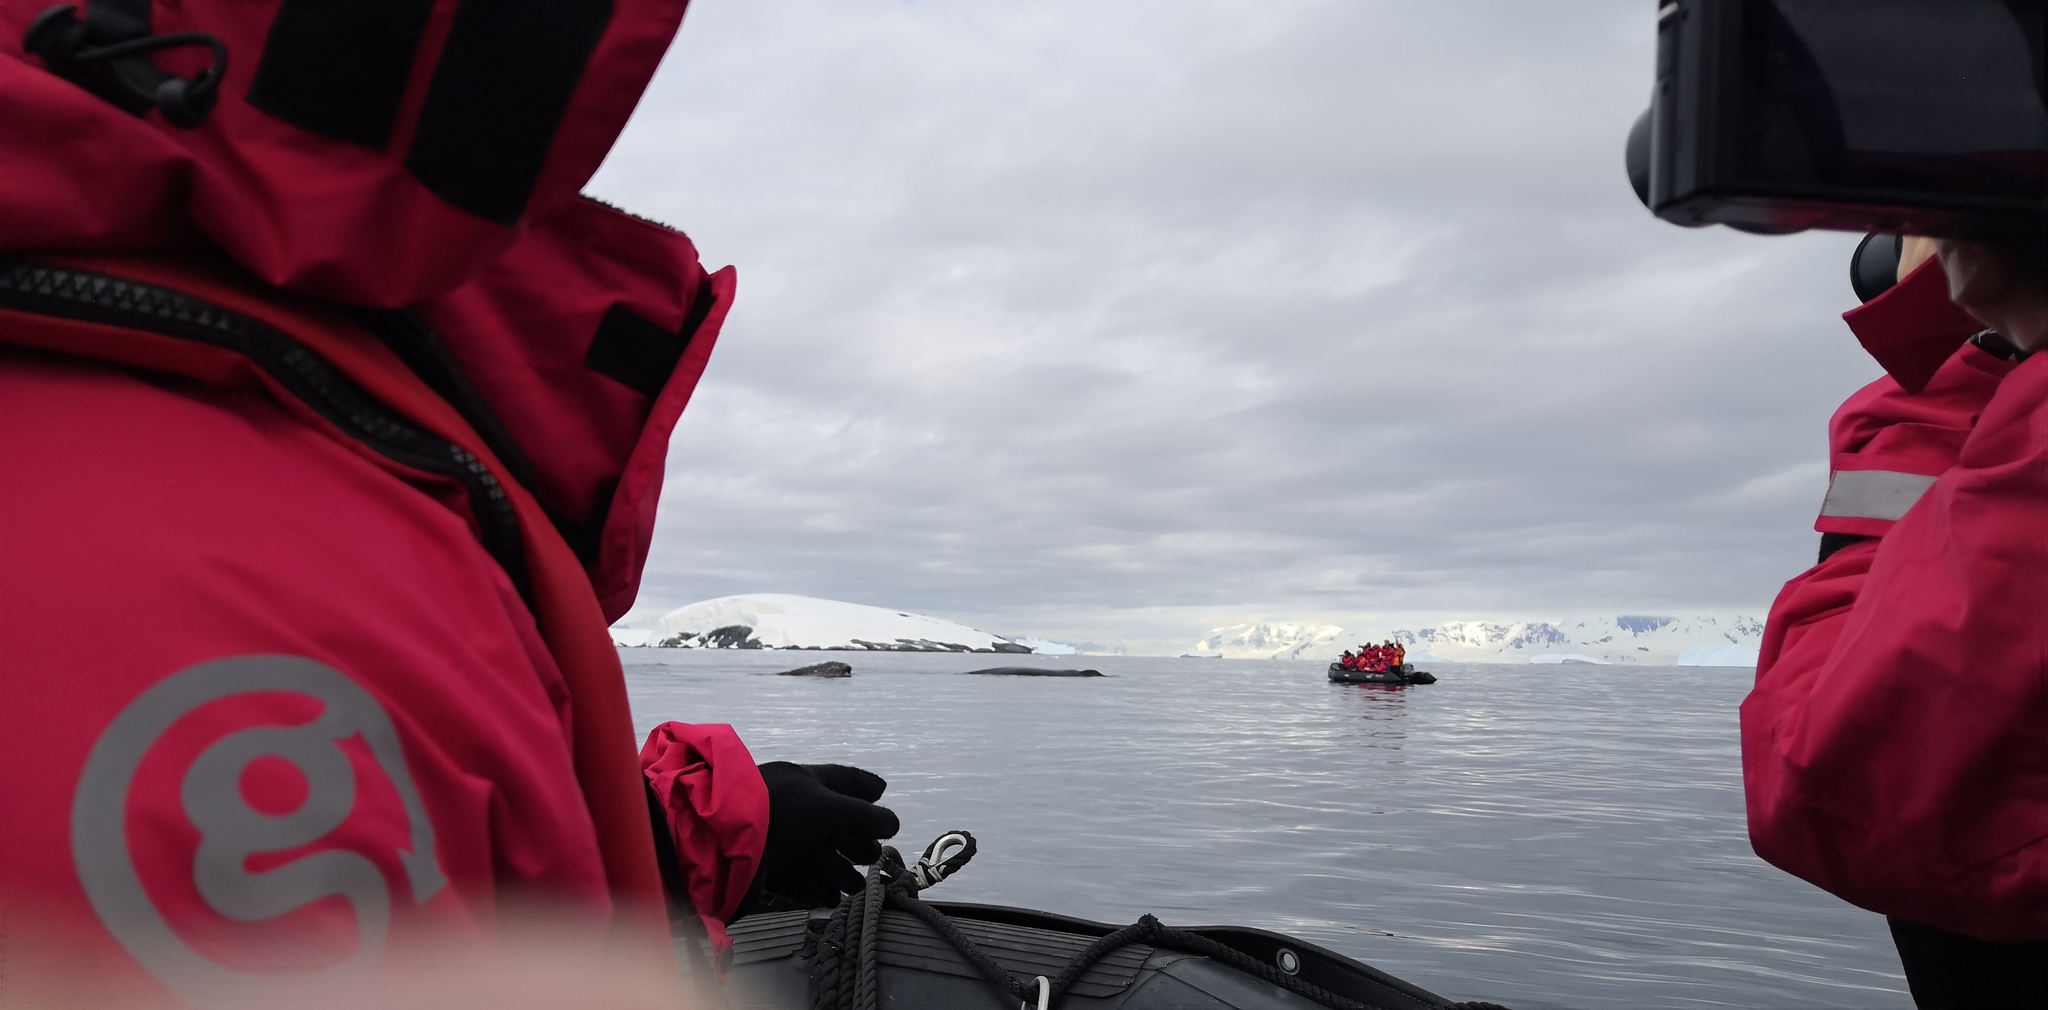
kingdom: Animalia
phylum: Chordata
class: Mammalia
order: Cetacea
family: Balaenopteridae
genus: Megaptera
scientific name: Megaptera novaeangliae
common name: Humpback whale
